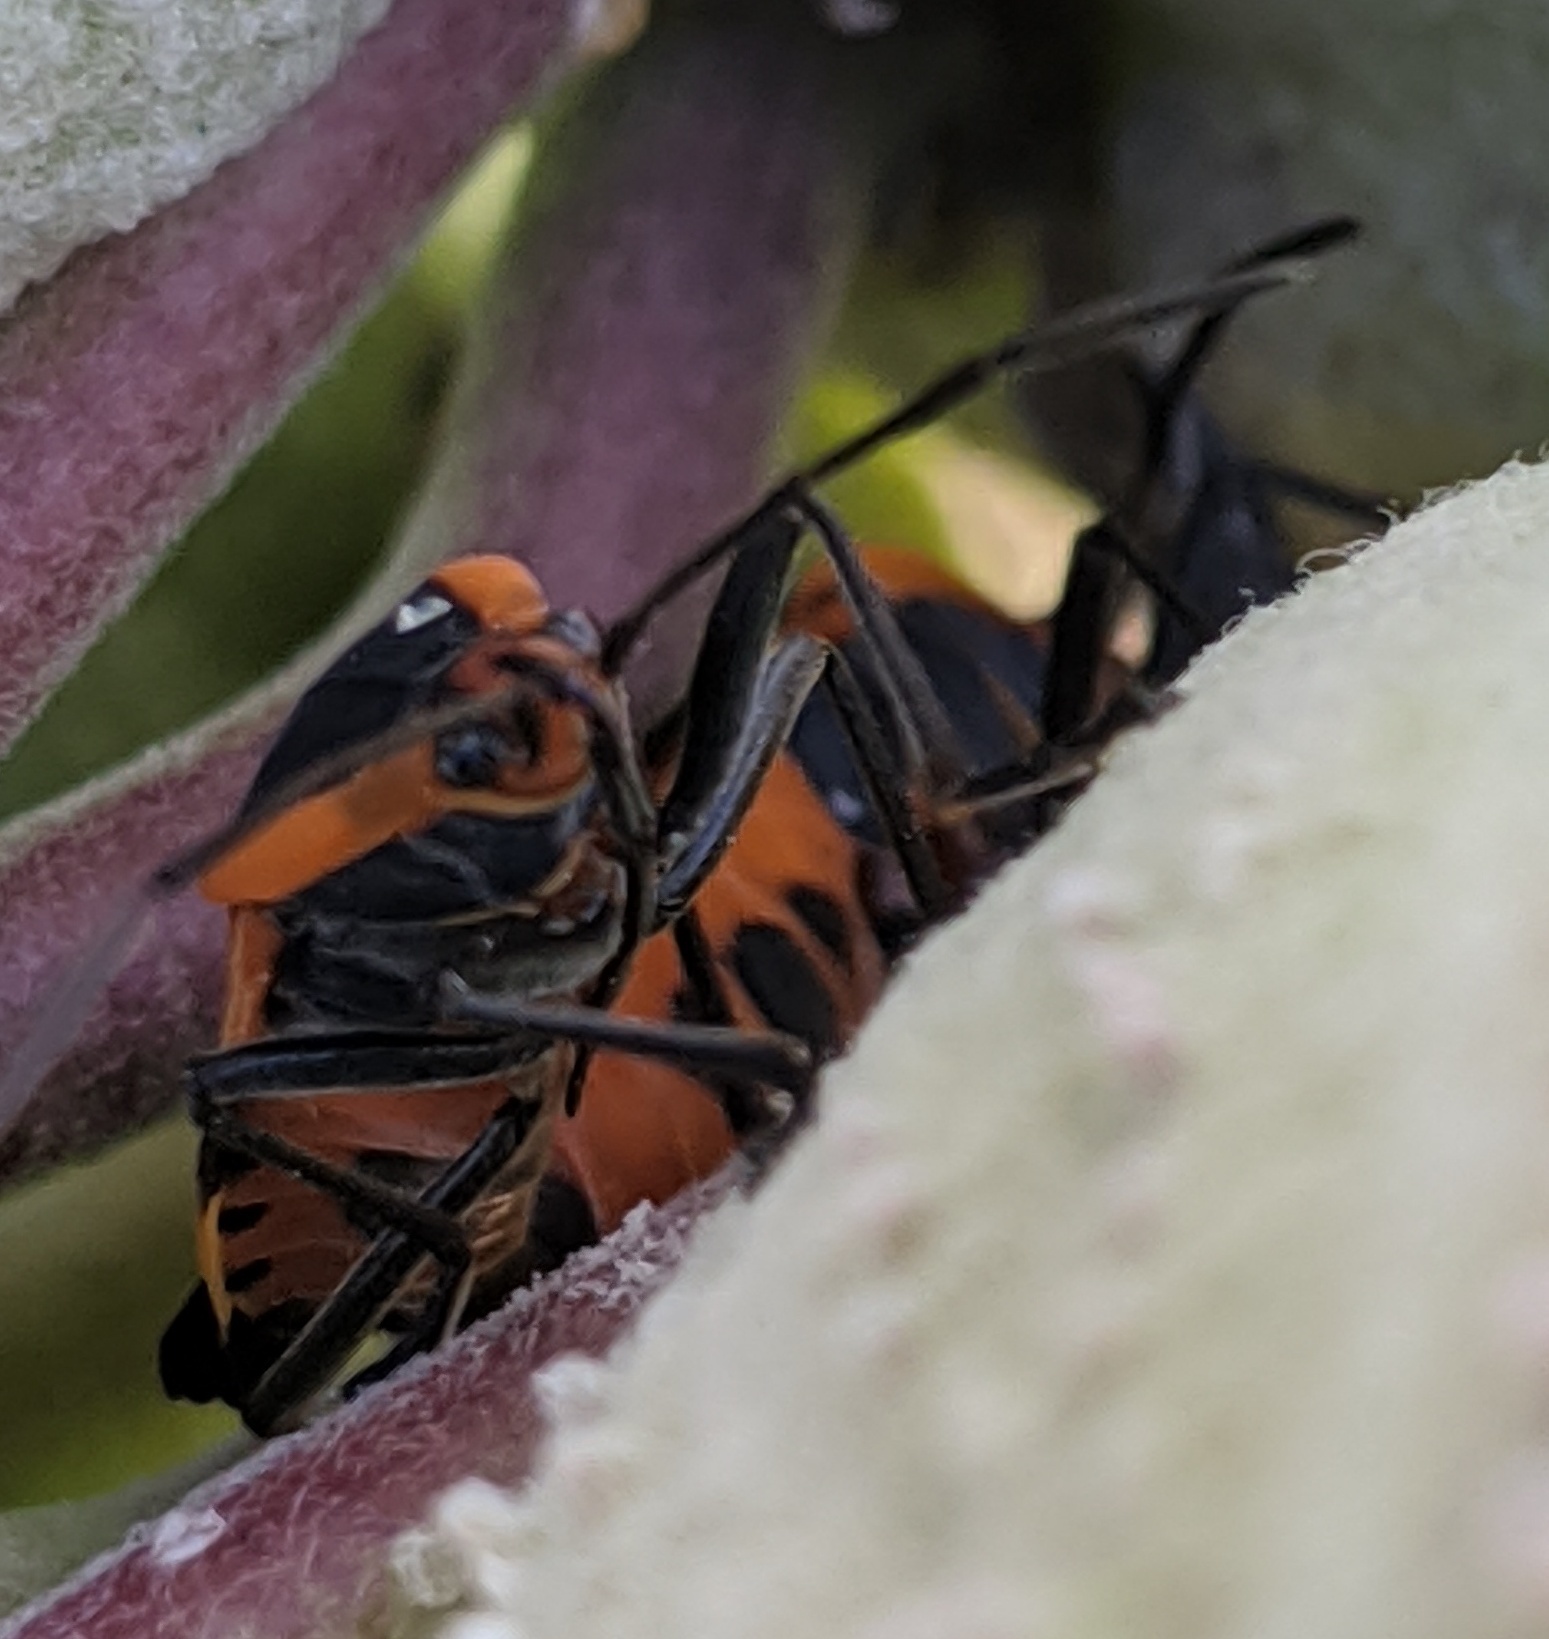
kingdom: Animalia
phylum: Arthropoda
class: Insecta
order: Hemiptera
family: Lygaeidae
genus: Oncopeltus
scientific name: Oncopeltus fasciatus
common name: Large milkweed bug
